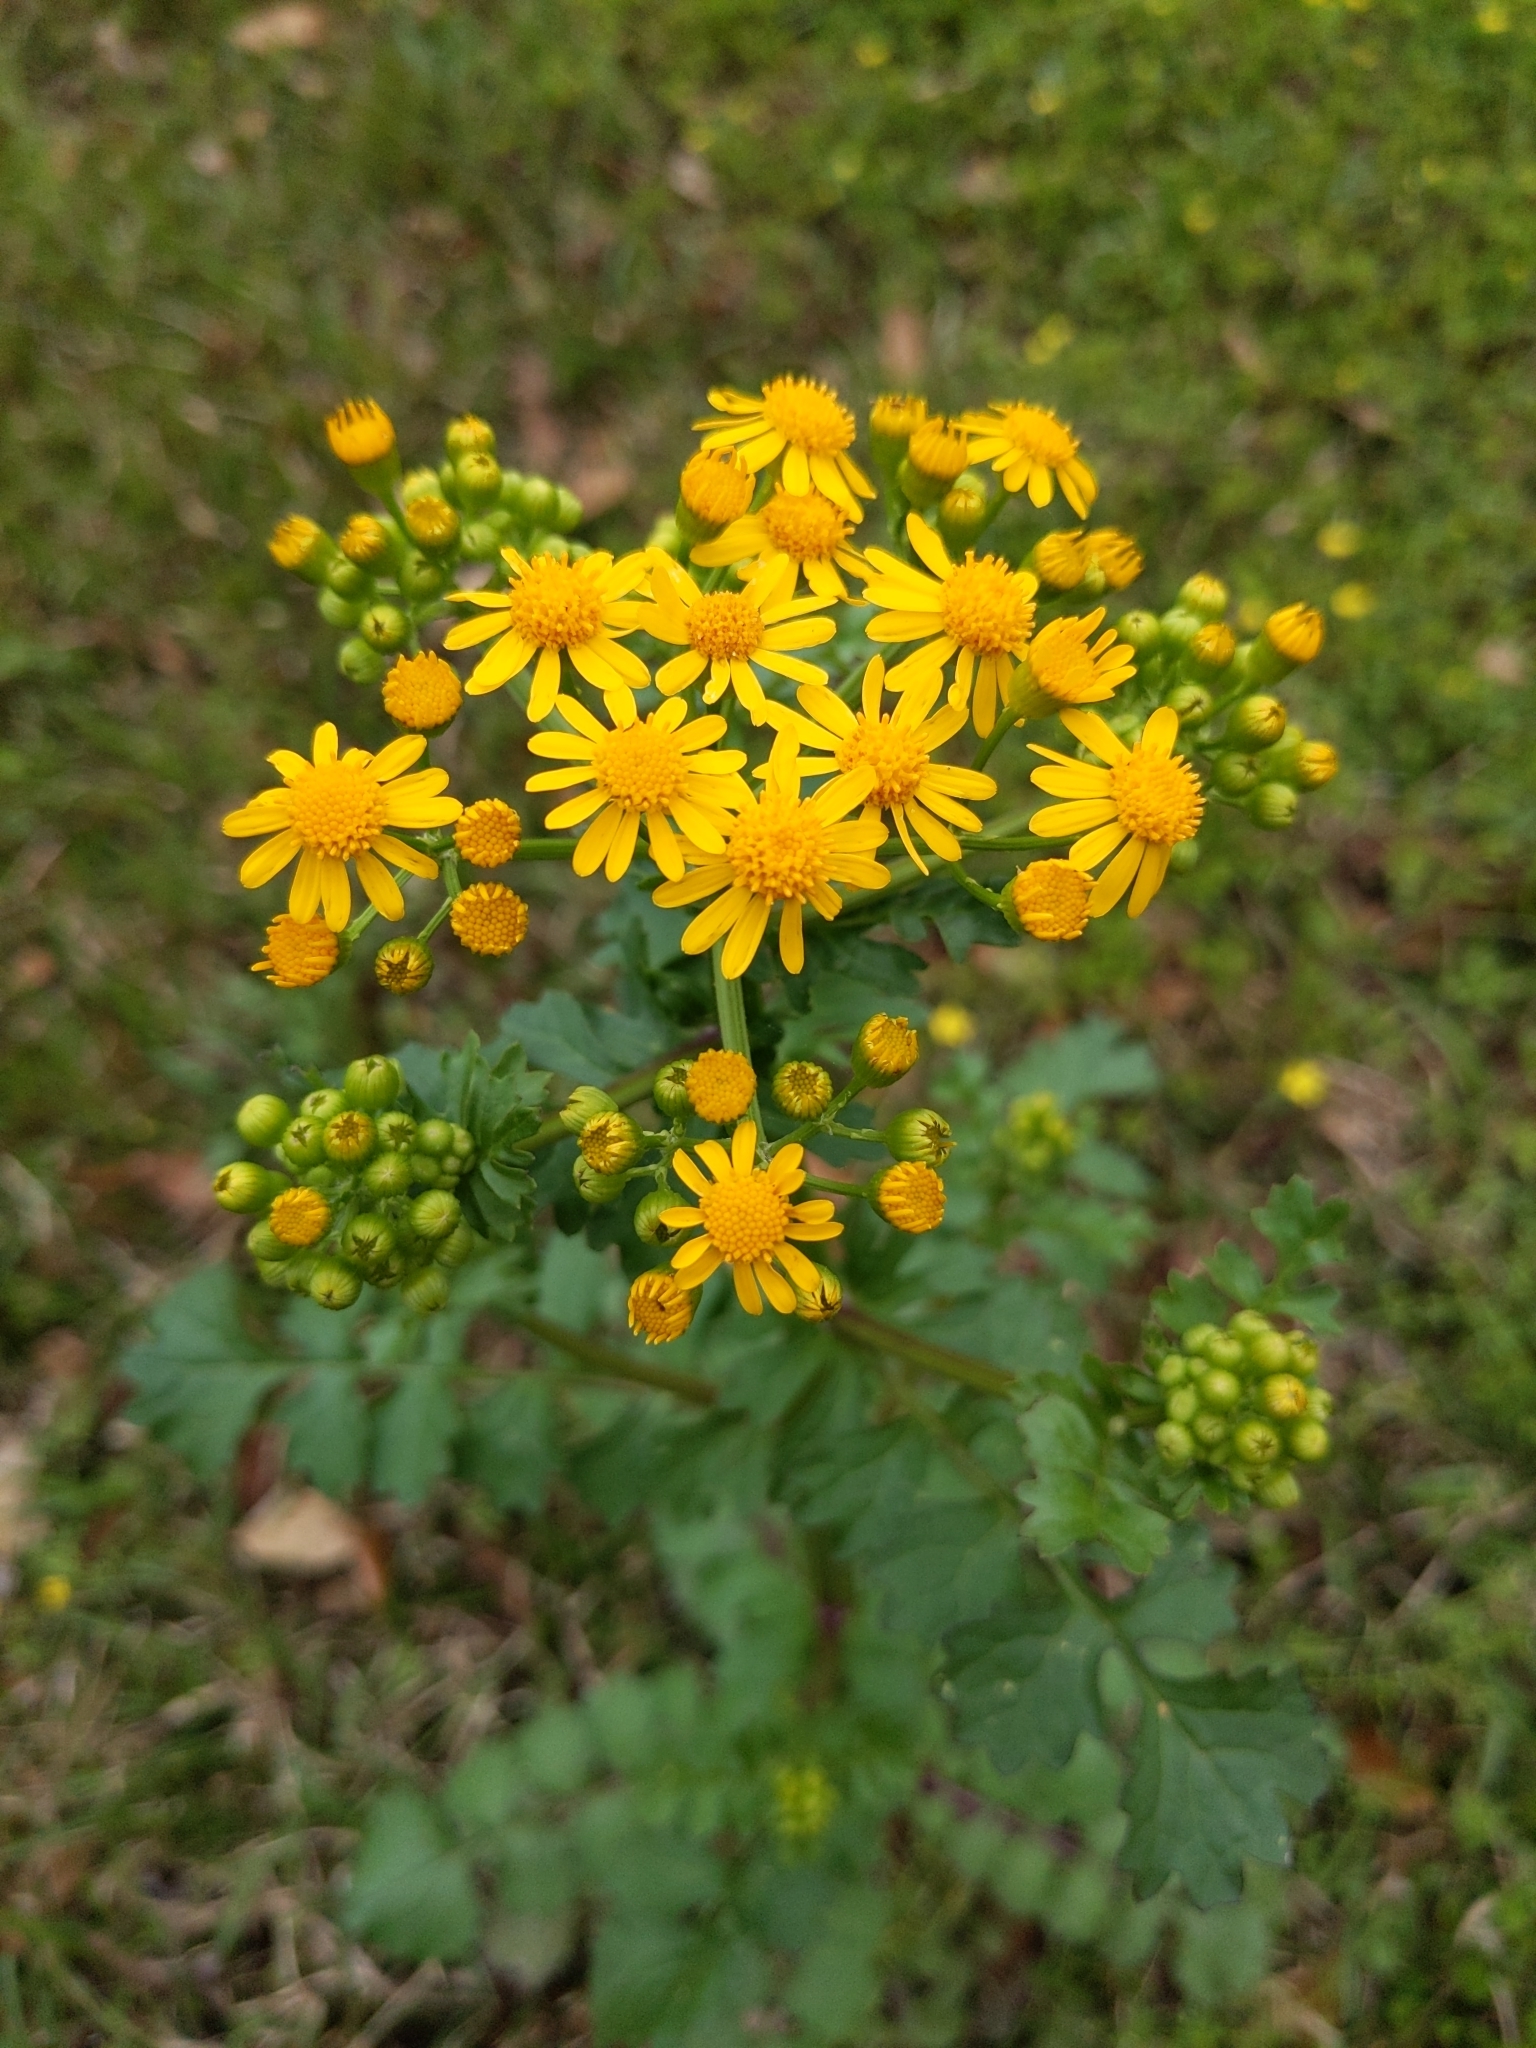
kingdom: Plantae
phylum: Tracheophyta
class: Magnoliopsida
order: Asterales
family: Asteraceae
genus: Packera
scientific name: Packera glabella
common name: Butterweed
